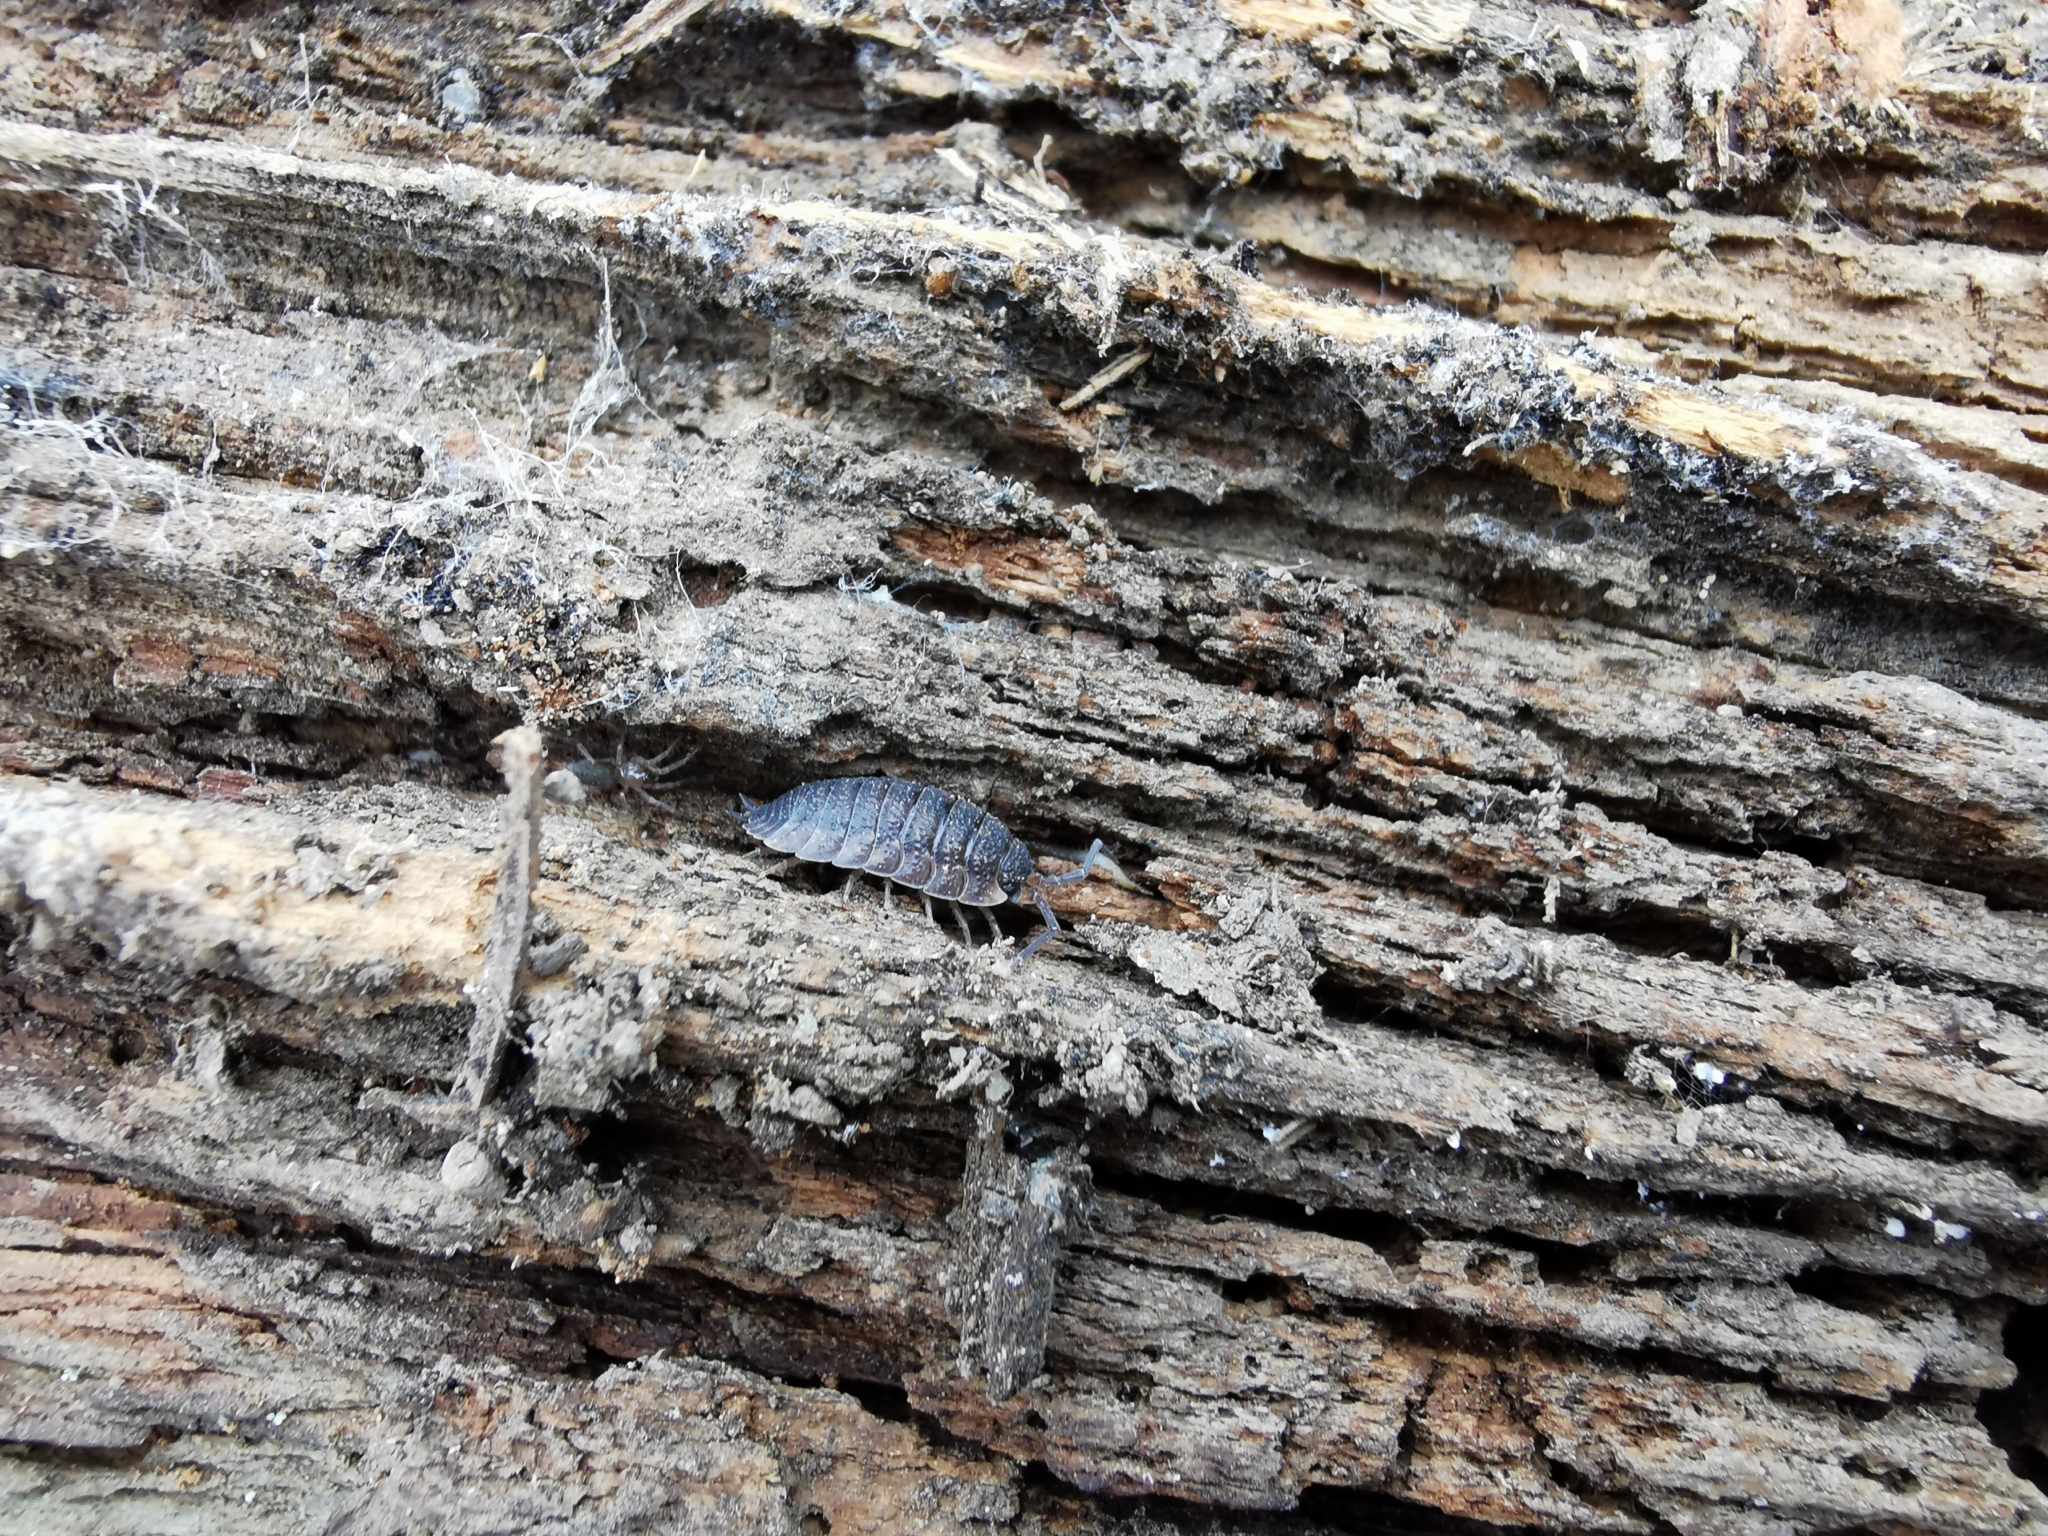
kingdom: Animalia
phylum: Arthropoda
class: Malacostraca
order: Isopoda
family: Porcellionidae
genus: Porcellio
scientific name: Porcellio scaber
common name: Common rough woodlouse
